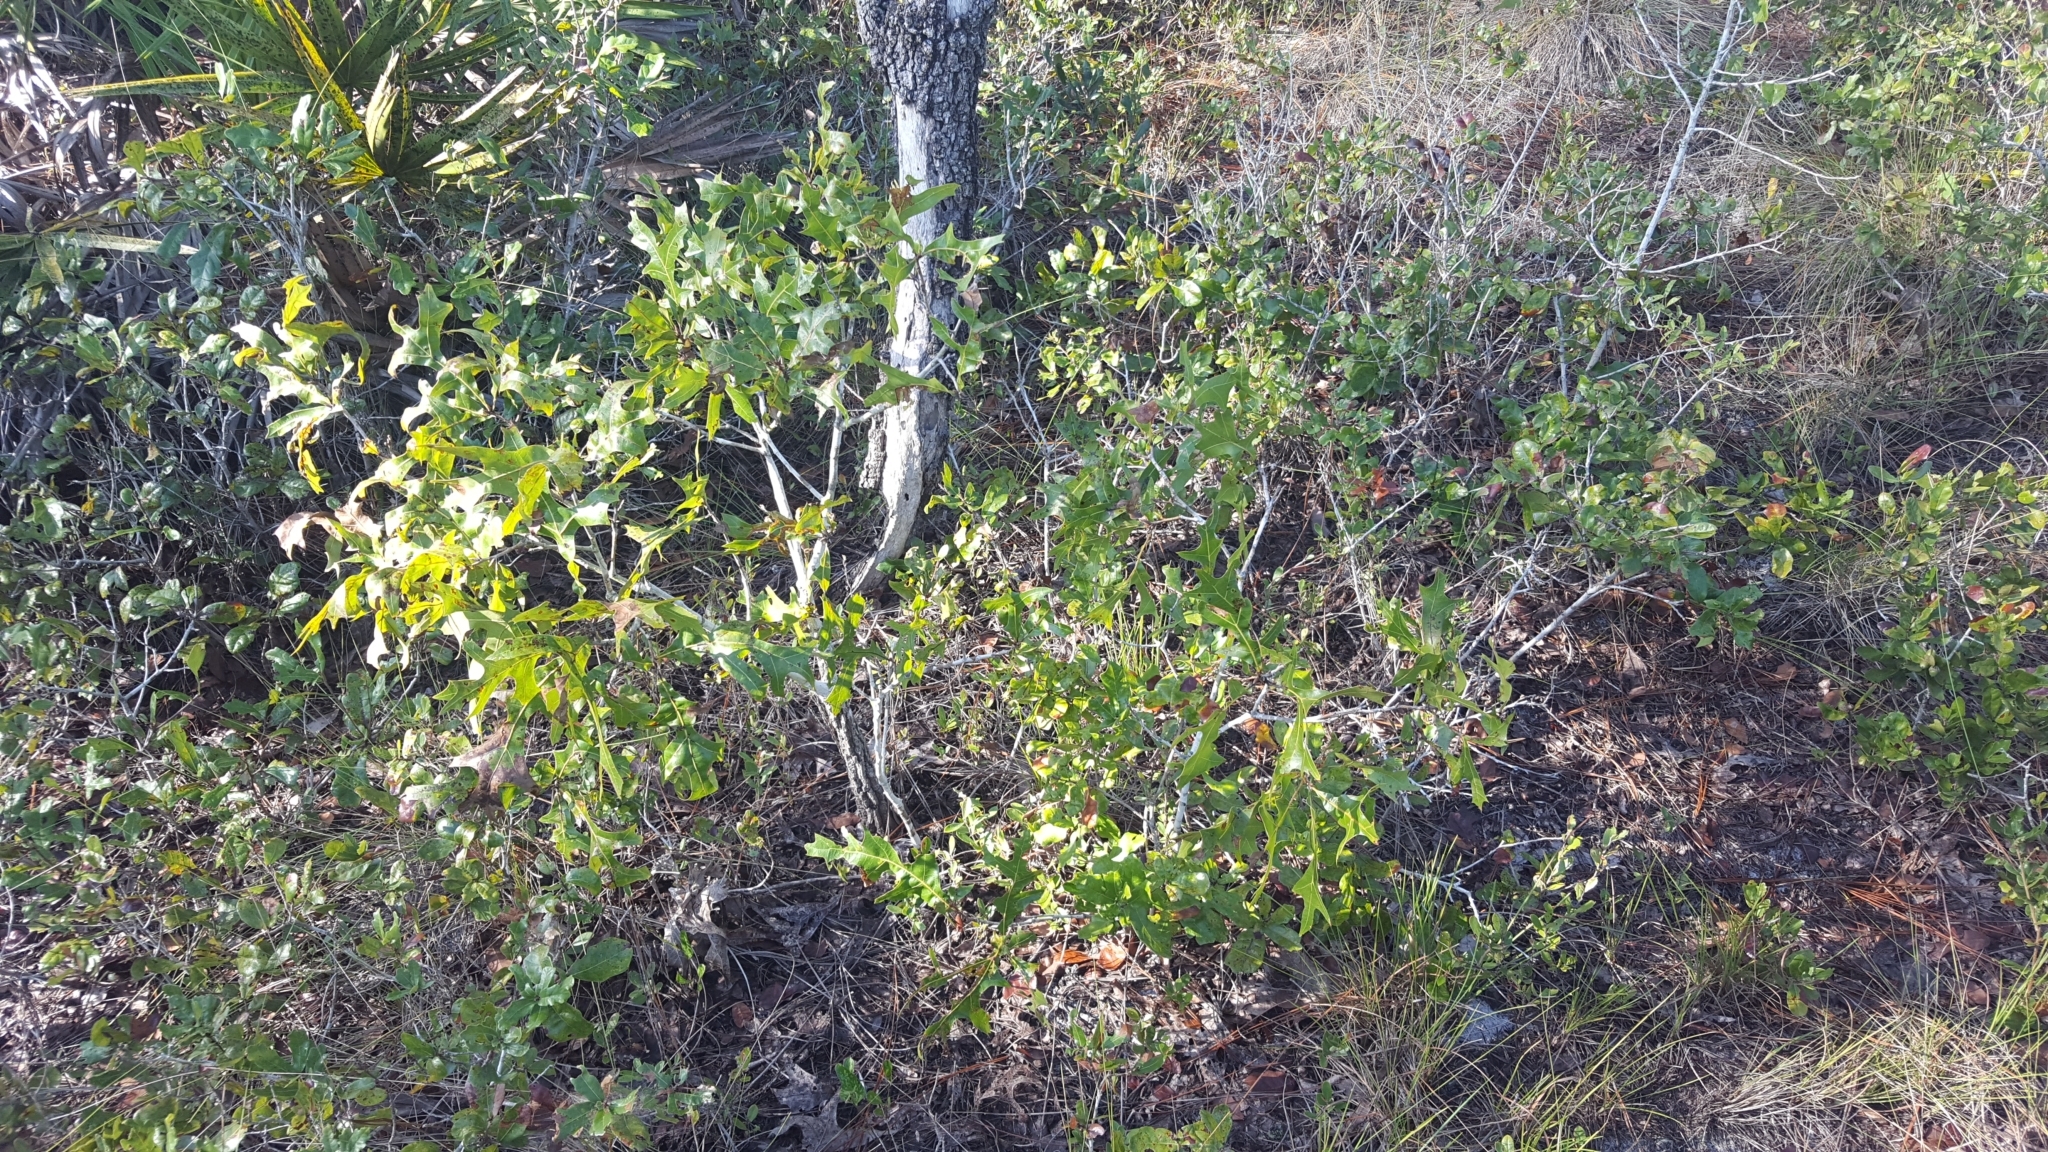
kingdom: Plantae
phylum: Tracheophyta
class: Magnoliopsida
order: Fagales
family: Fagaceae
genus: Quercus
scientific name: Quercus laevis
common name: Turkey oak
